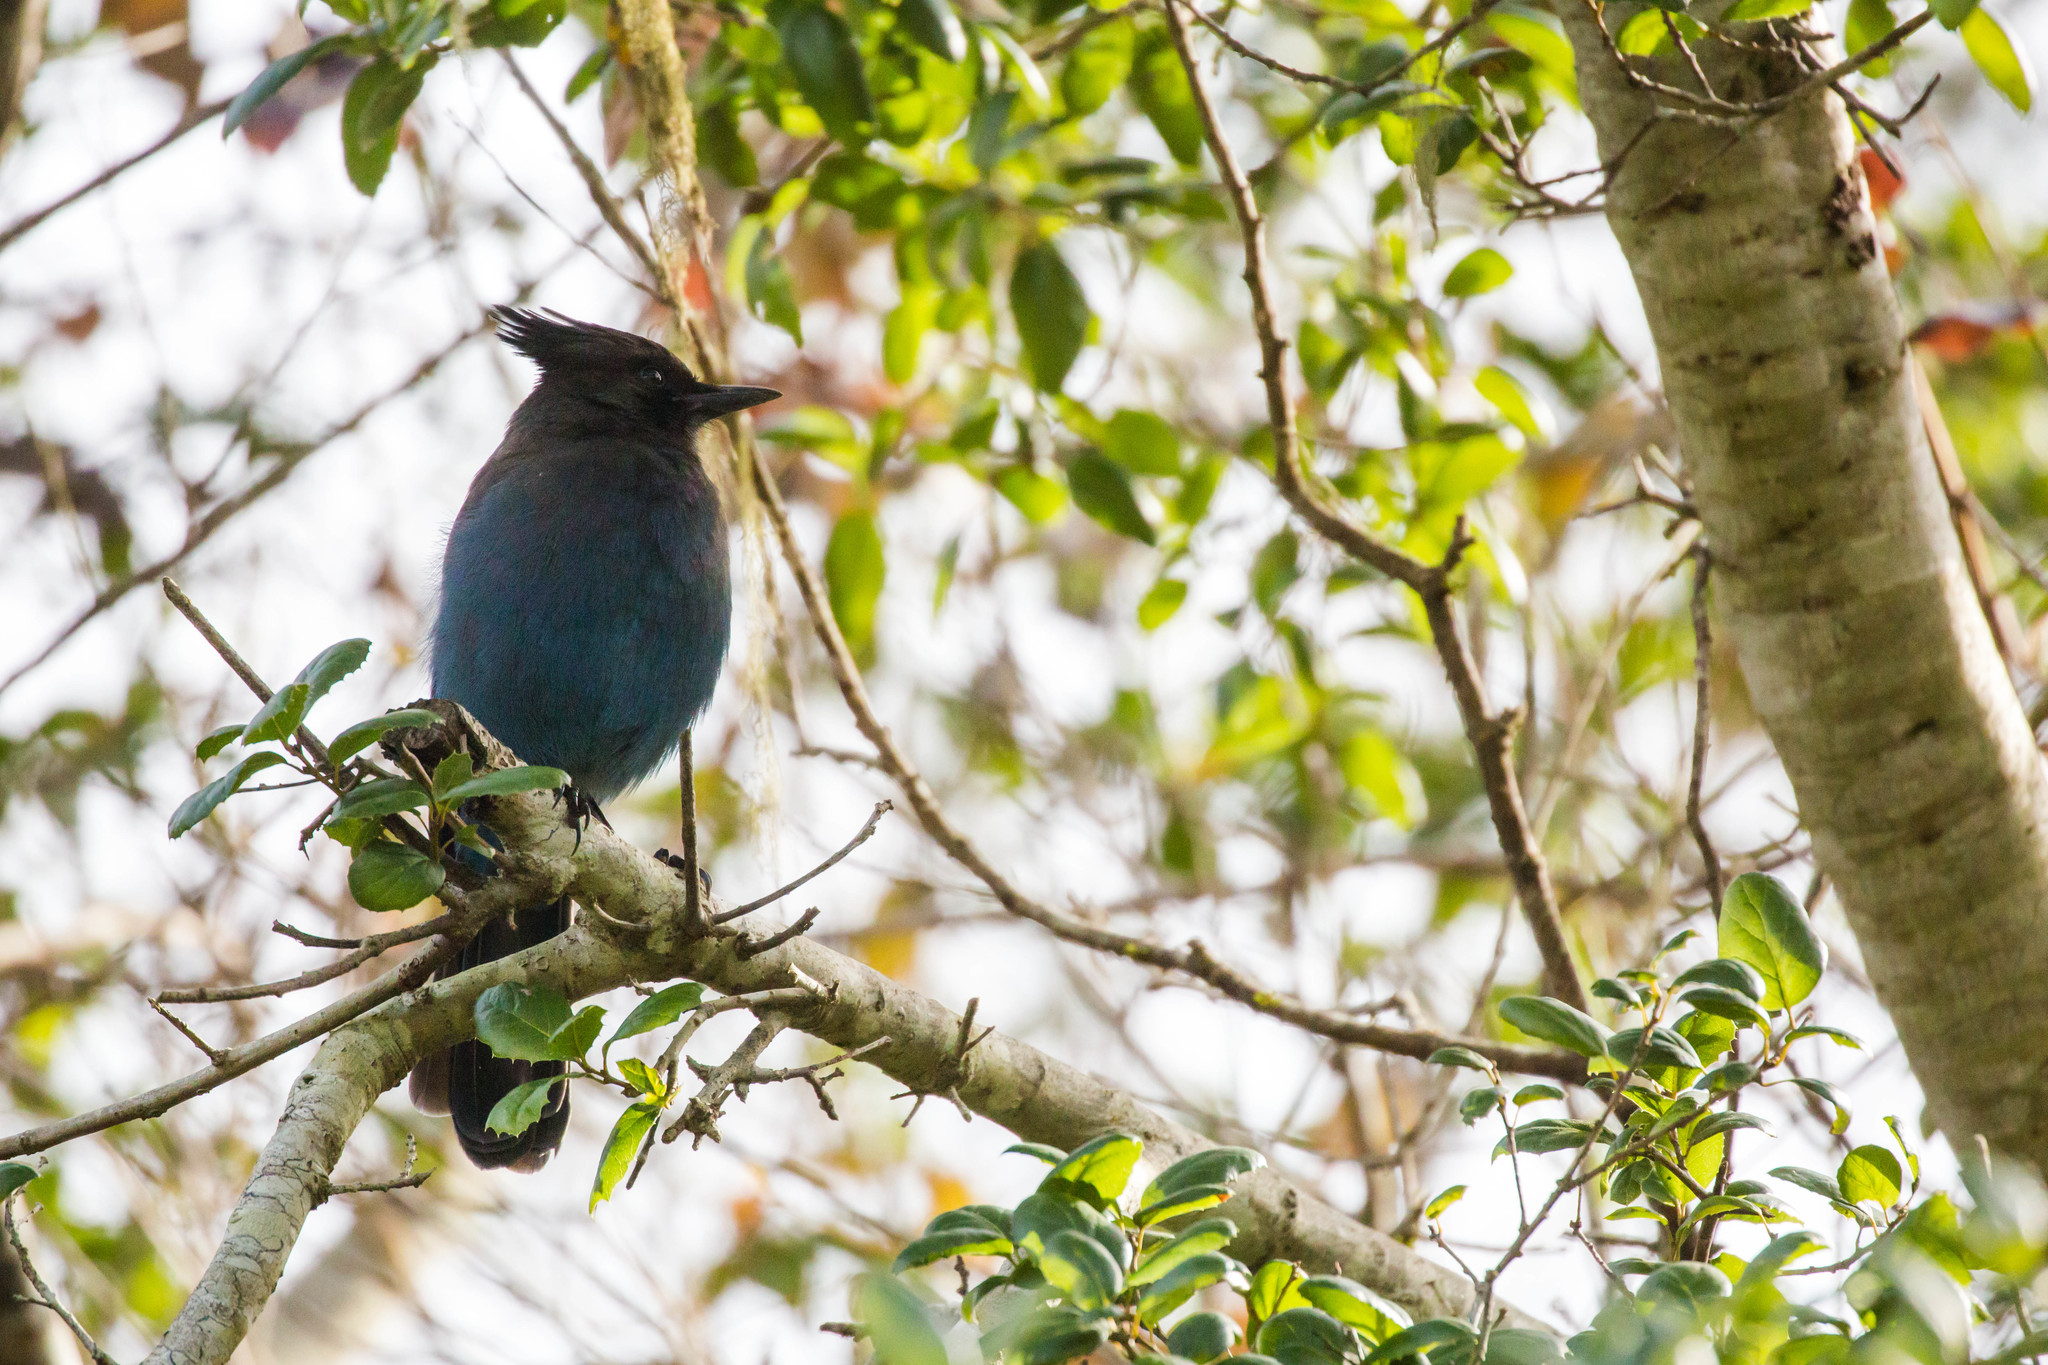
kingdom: Animalia
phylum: Chordata
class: Aves
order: Passeriformes
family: Corvidae
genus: Cyanocitta
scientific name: Cyanocitta stelleri
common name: Steller's jay
